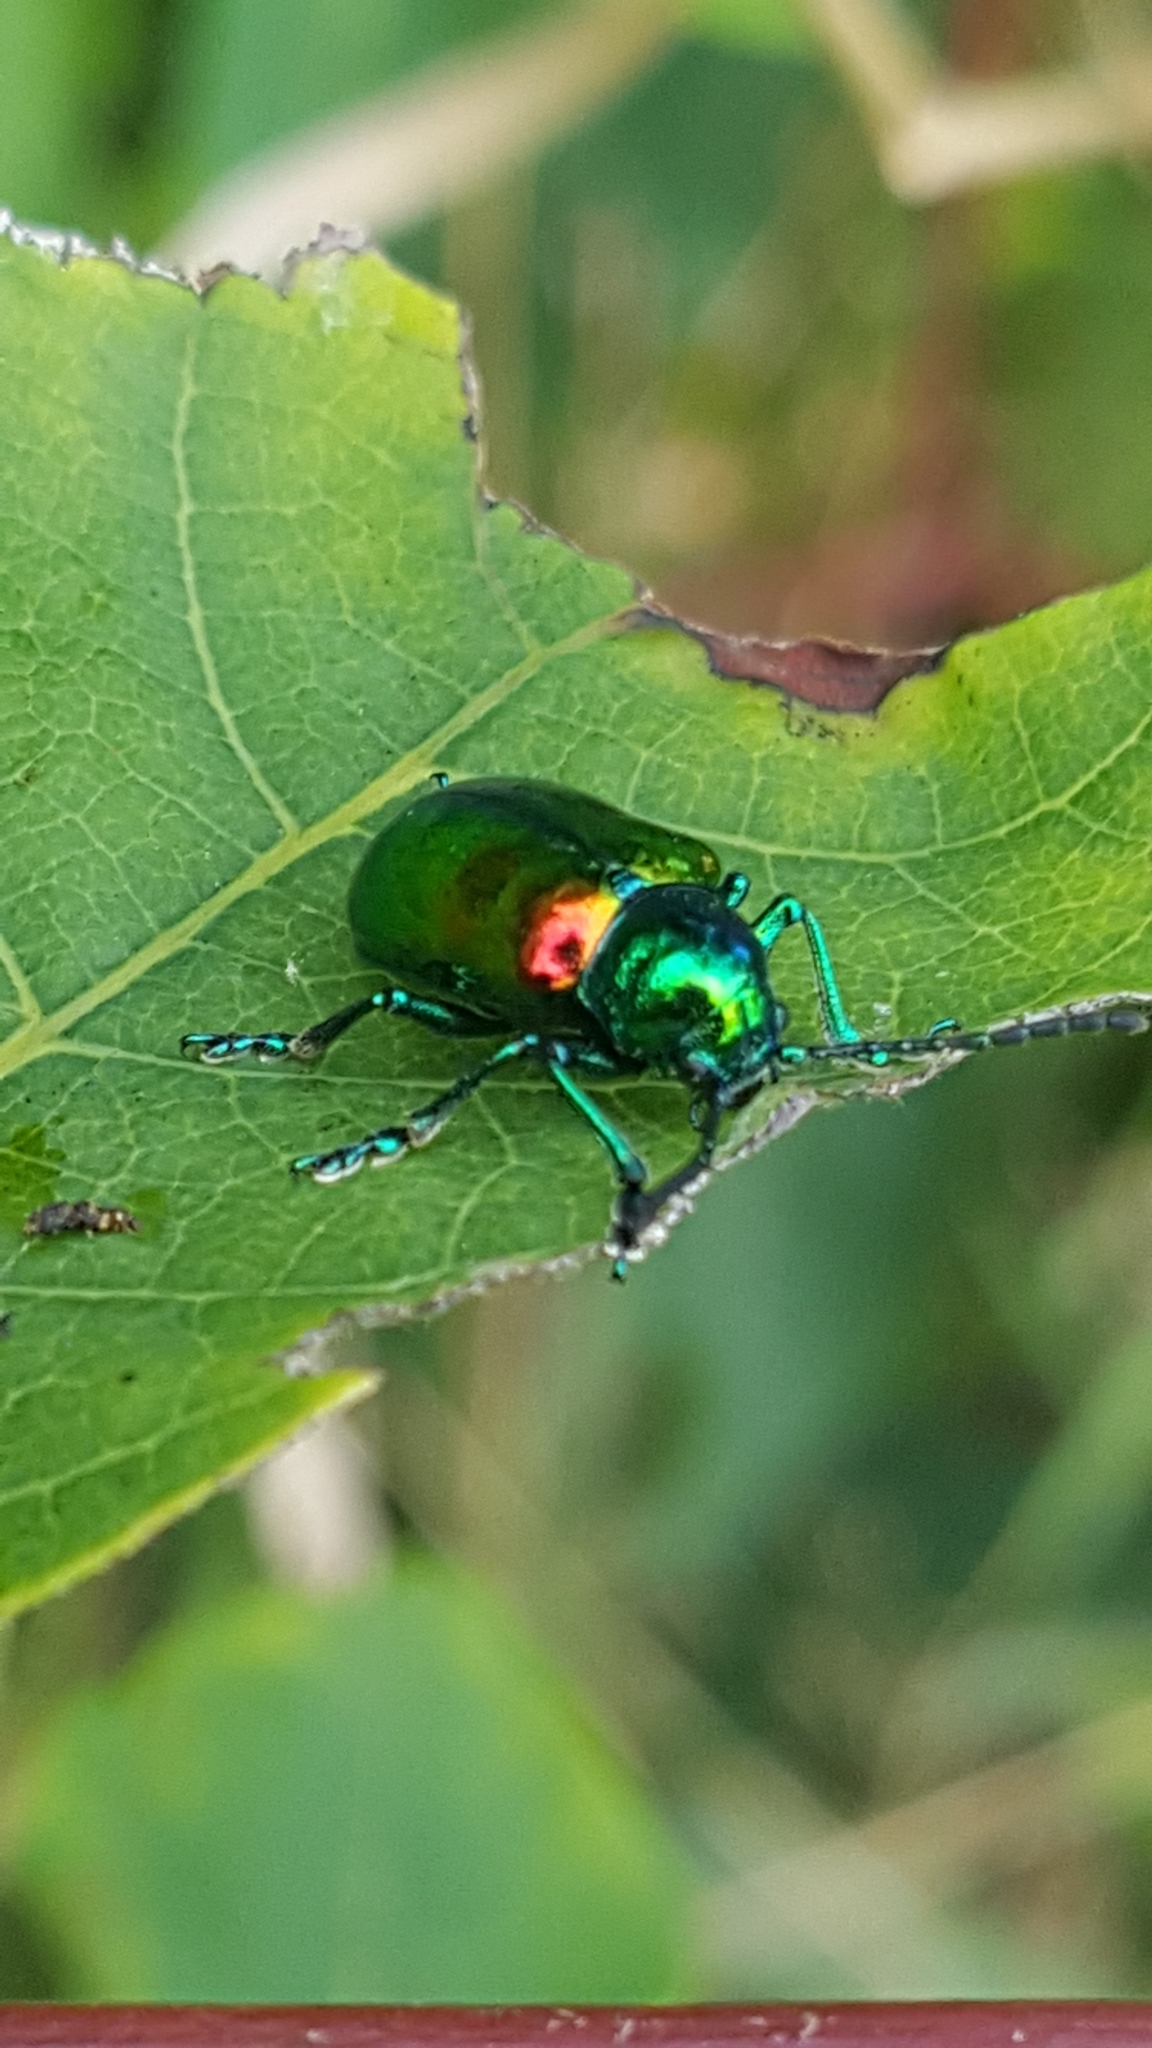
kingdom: Animalia
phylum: Arthropoda
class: Insecta
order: Coleoptera
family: Chrysomelidae
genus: Chrysochus
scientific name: Chrysochus auratus
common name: Dogbane leaf beetle
